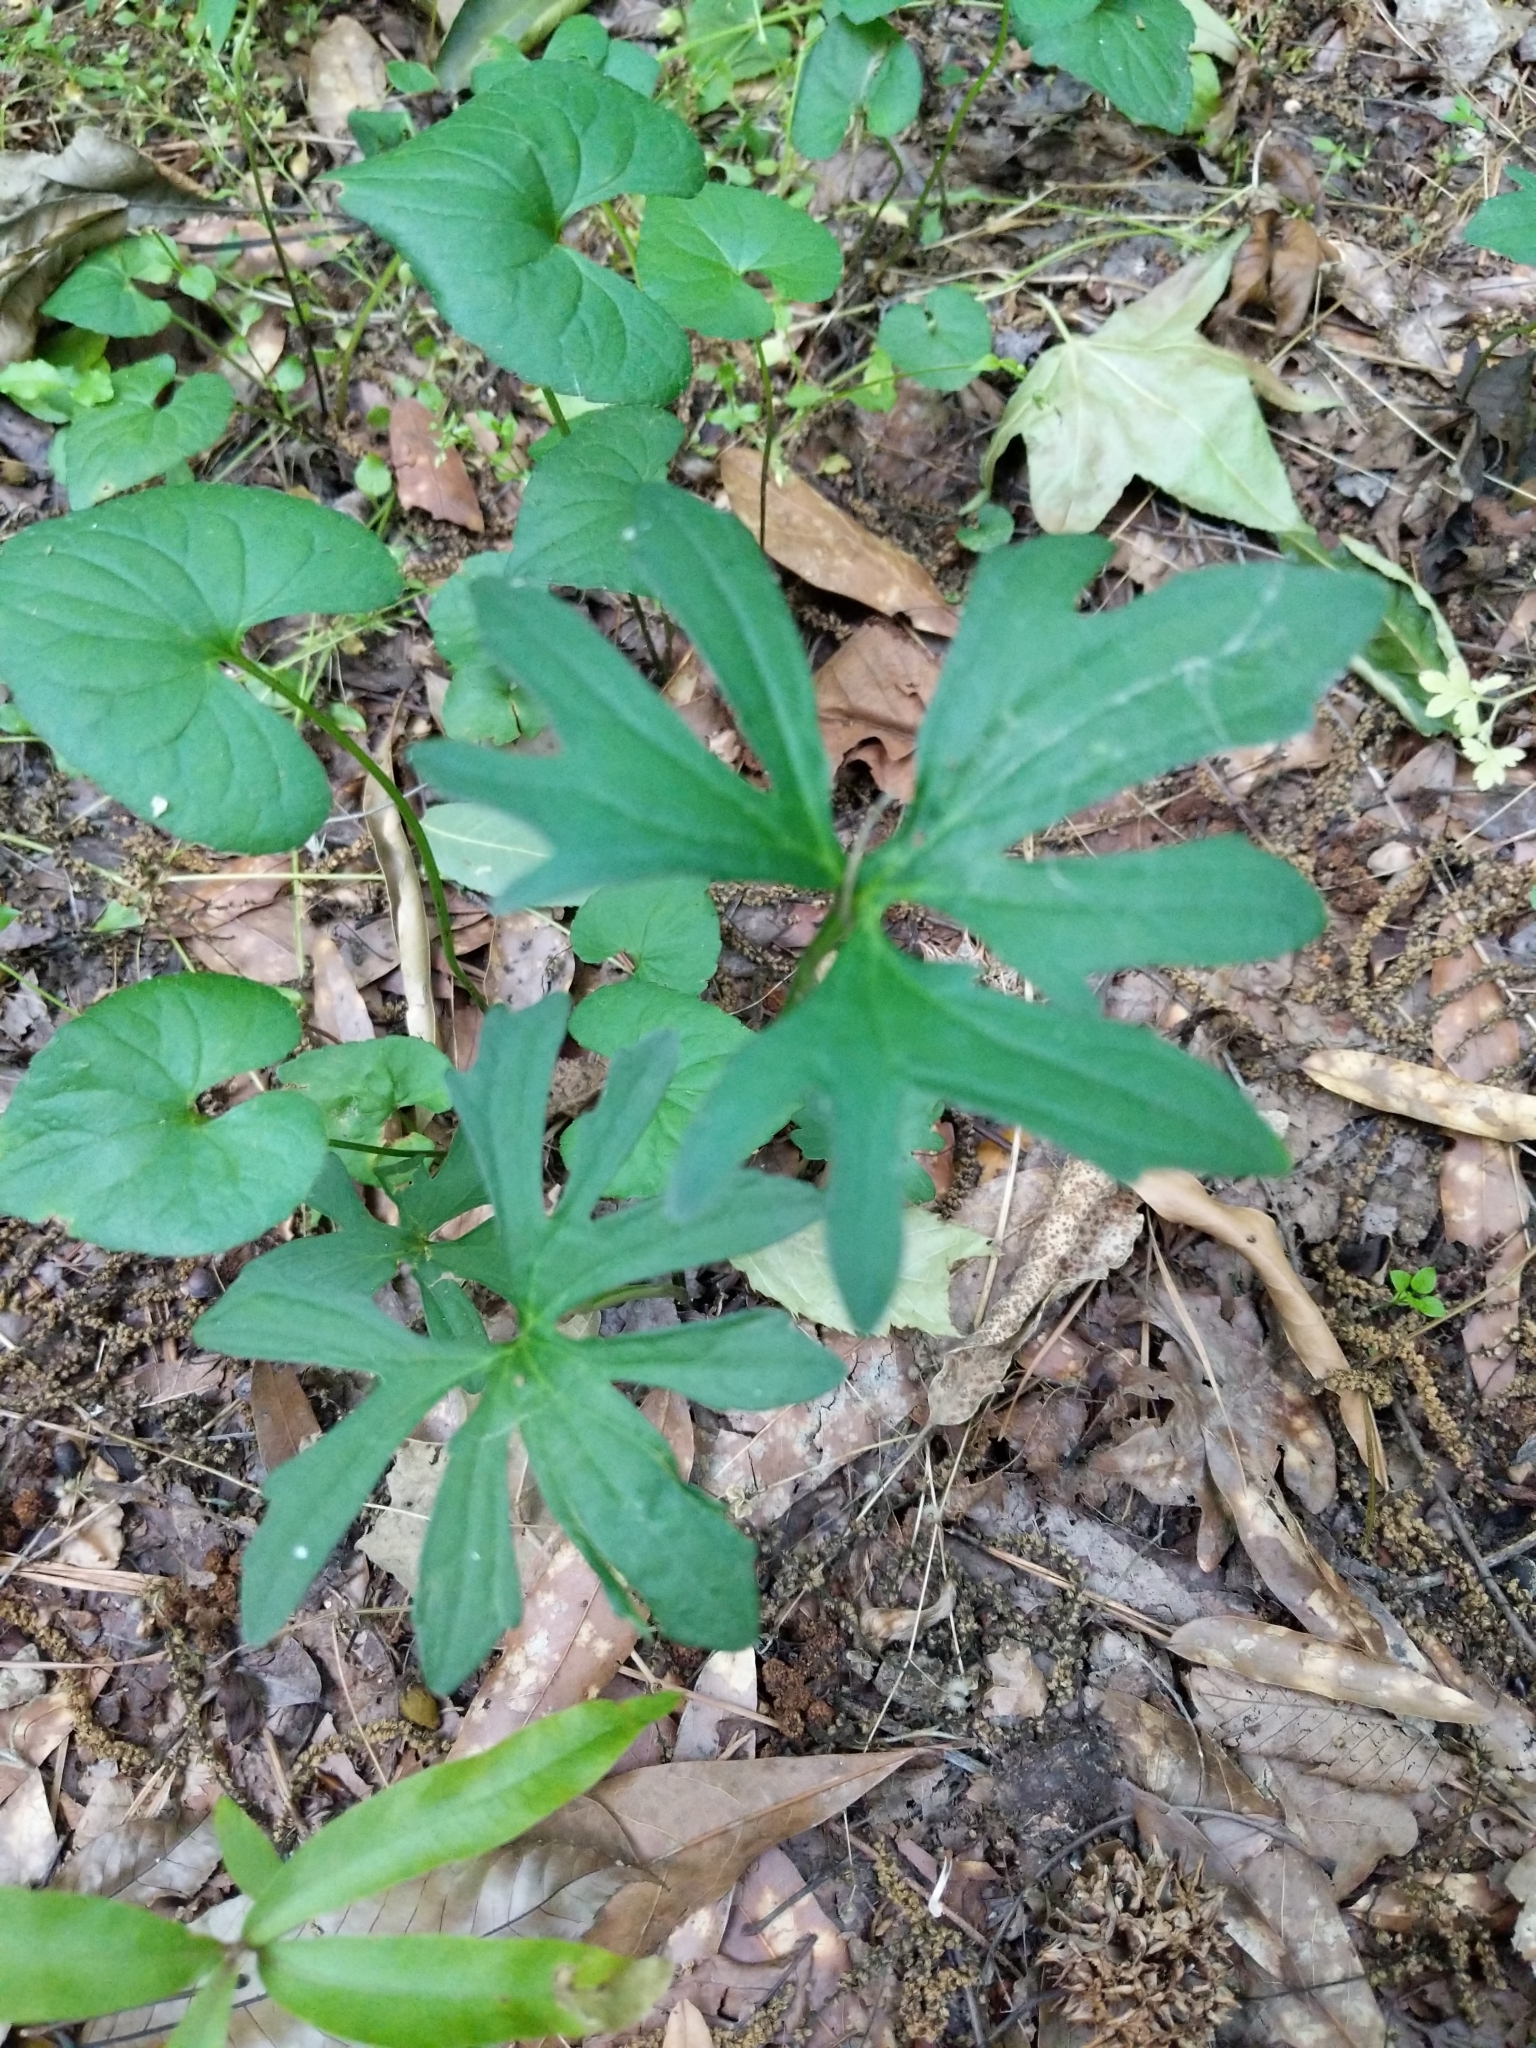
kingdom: Plantae
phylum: Tracheophyta
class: Magnoliopsida
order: Malpighiales
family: Violaceae
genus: Viola
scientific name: Viola palmata
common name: Early blue violet
